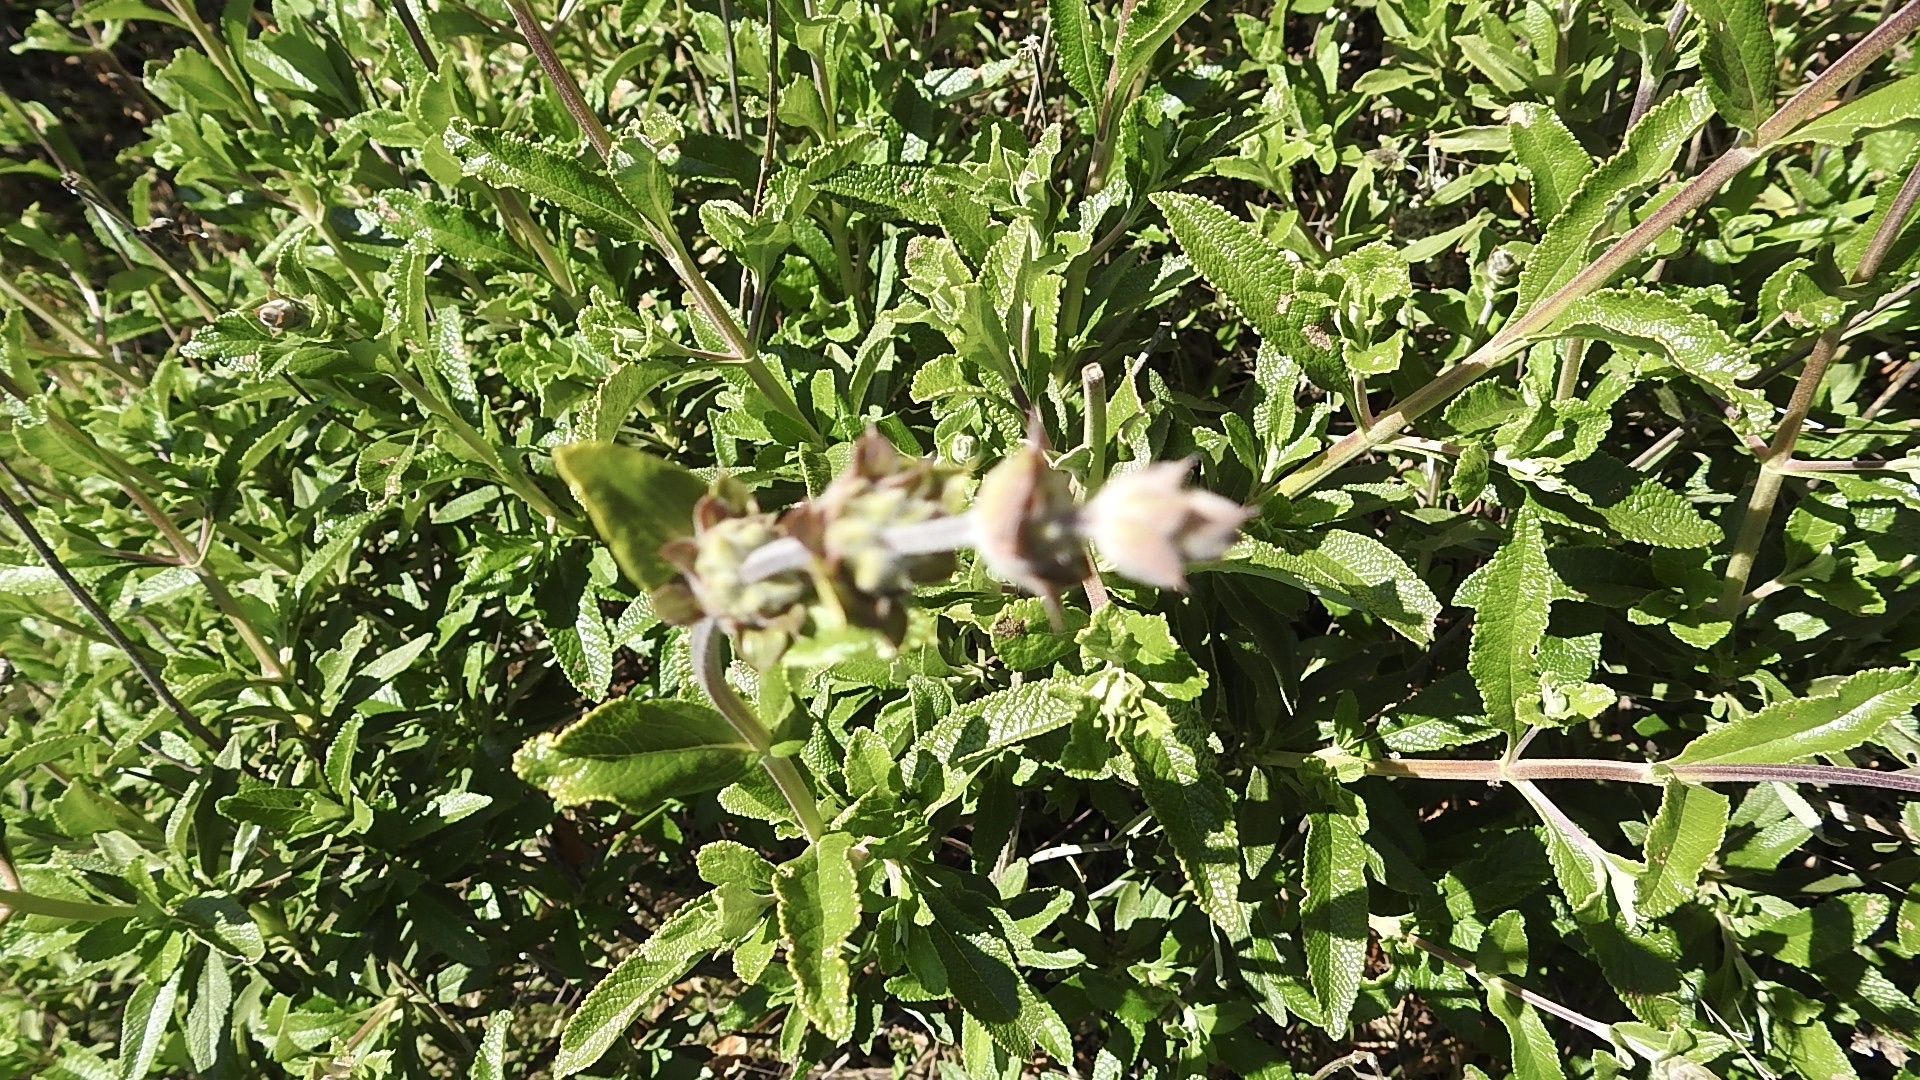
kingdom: Plantae
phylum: Tracheophyta
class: Magnoliopsida
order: Lamiales
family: Lamiaceae
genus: Salvia
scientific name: Salvia mellifera
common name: Black sage
